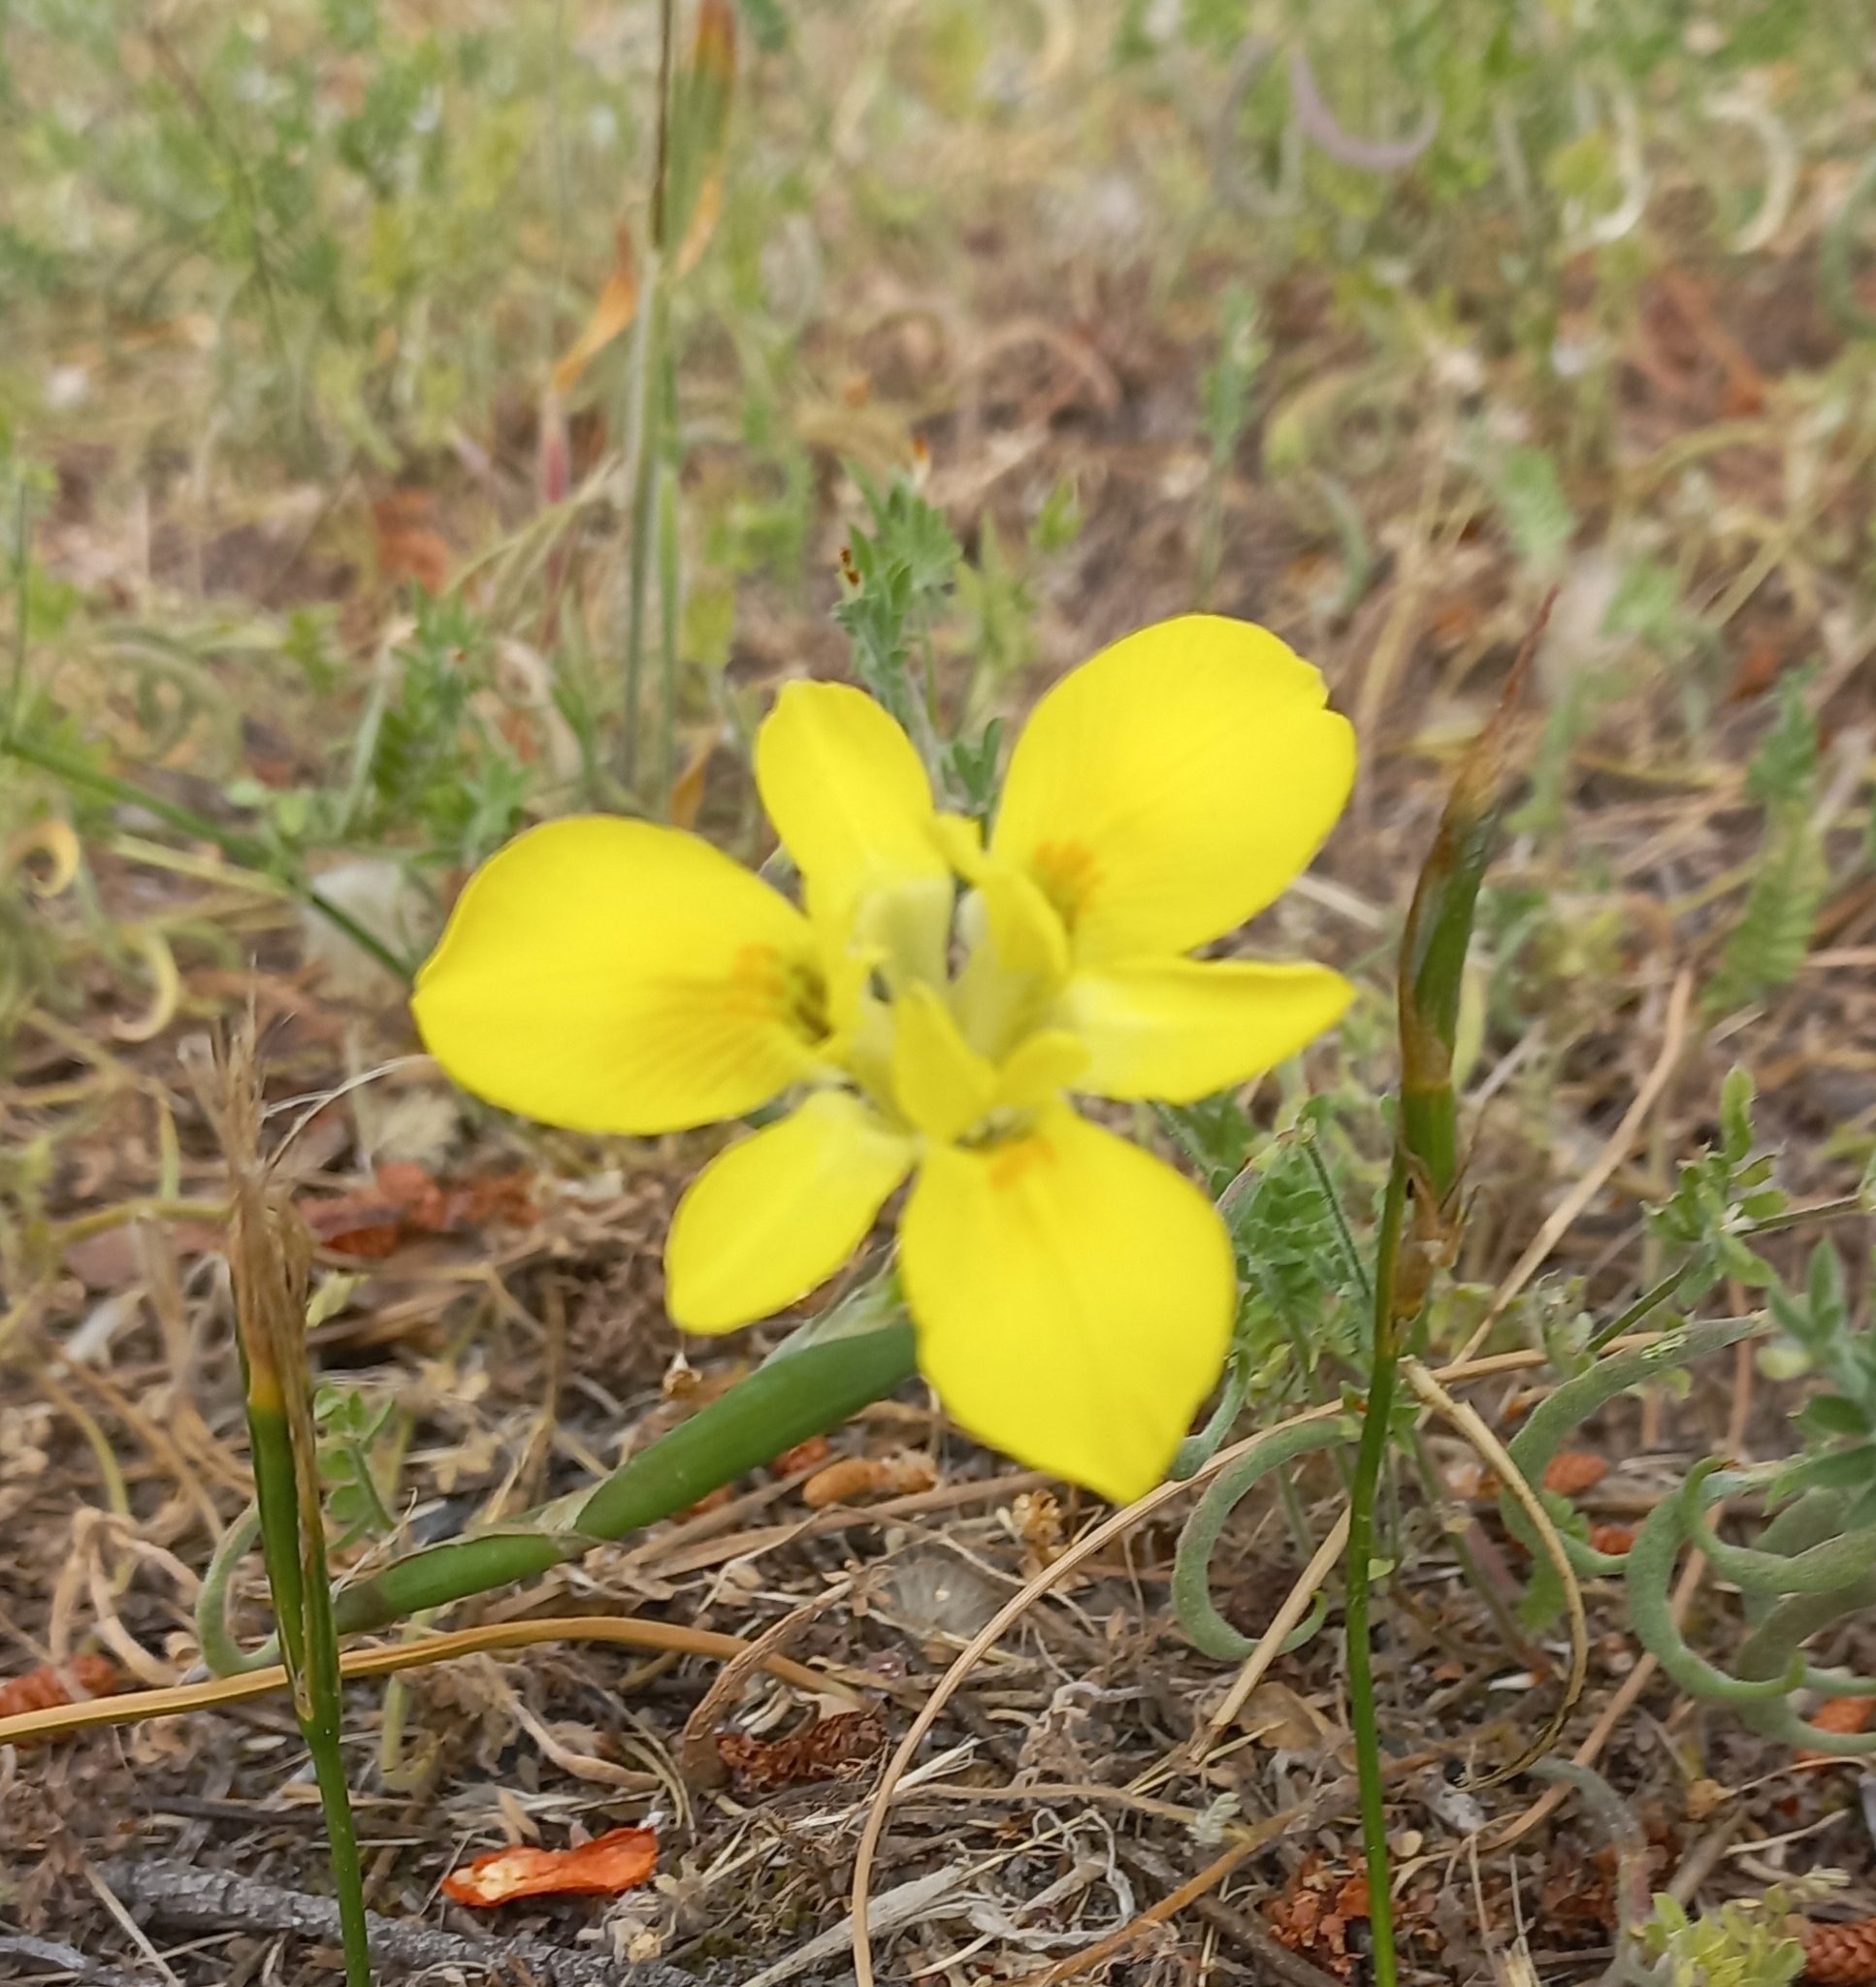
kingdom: Plantae
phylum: Tracheophyta
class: Liliopsida
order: Asparagales
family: Iridaceae
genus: Moraea
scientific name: Moraea fugax
